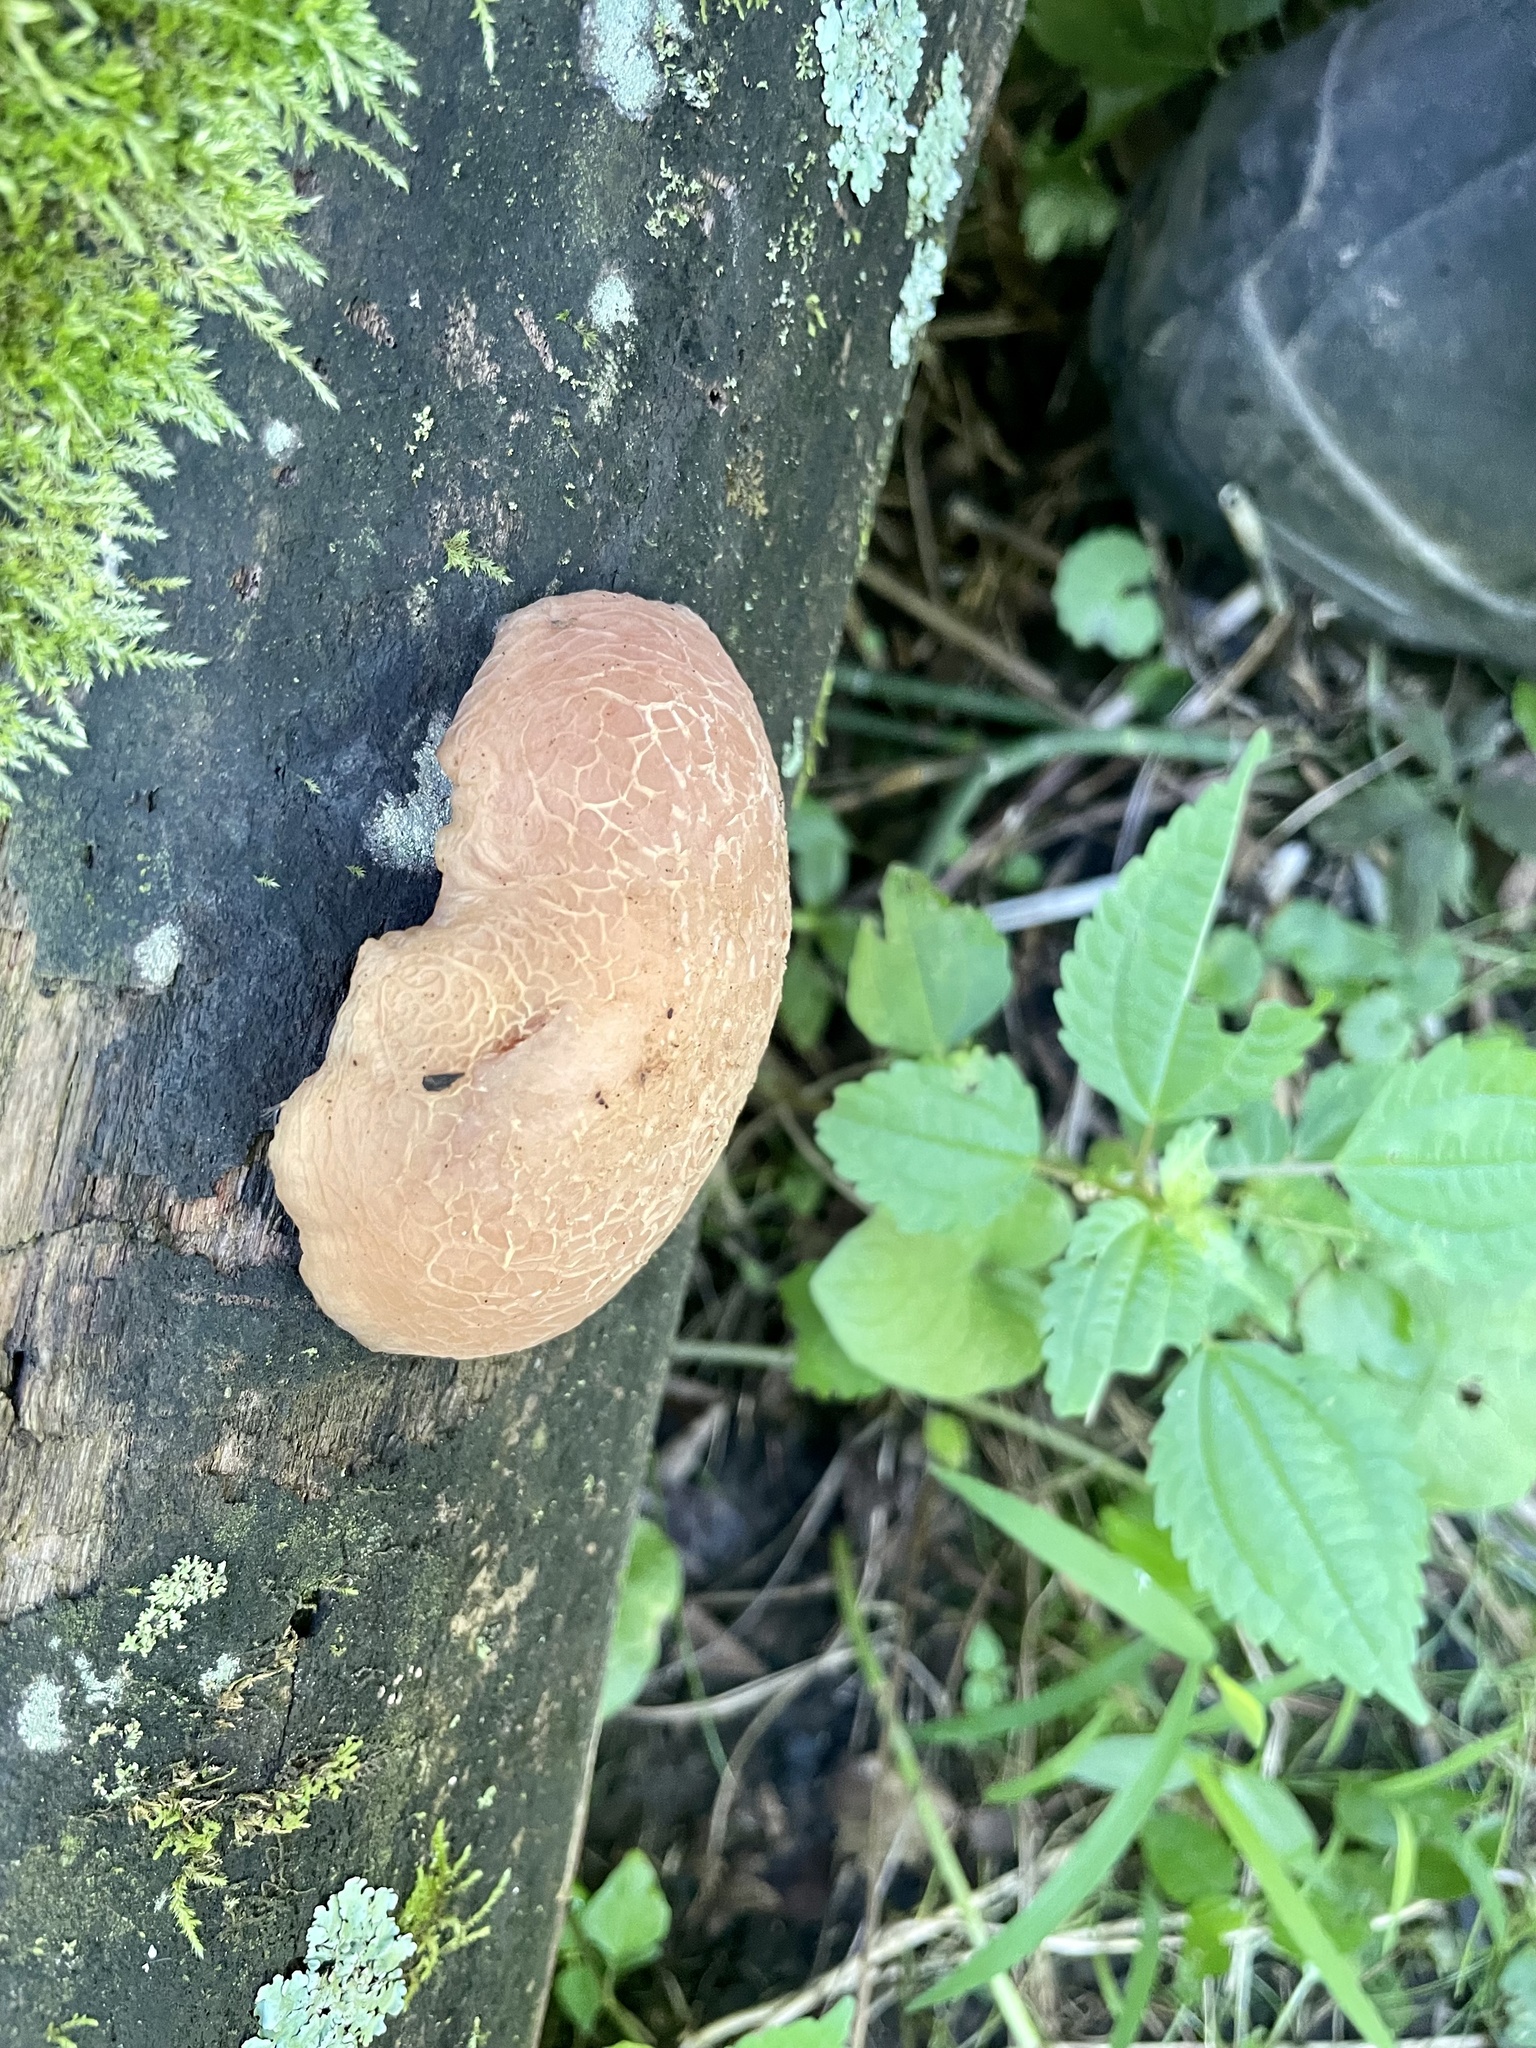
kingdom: Fungi
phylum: Basidiomycota
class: Agaricomycetes
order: Agaricales
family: Physalacriaceae
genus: Rhodotus
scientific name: Rhodotus palmatus
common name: Wrinkled peach
